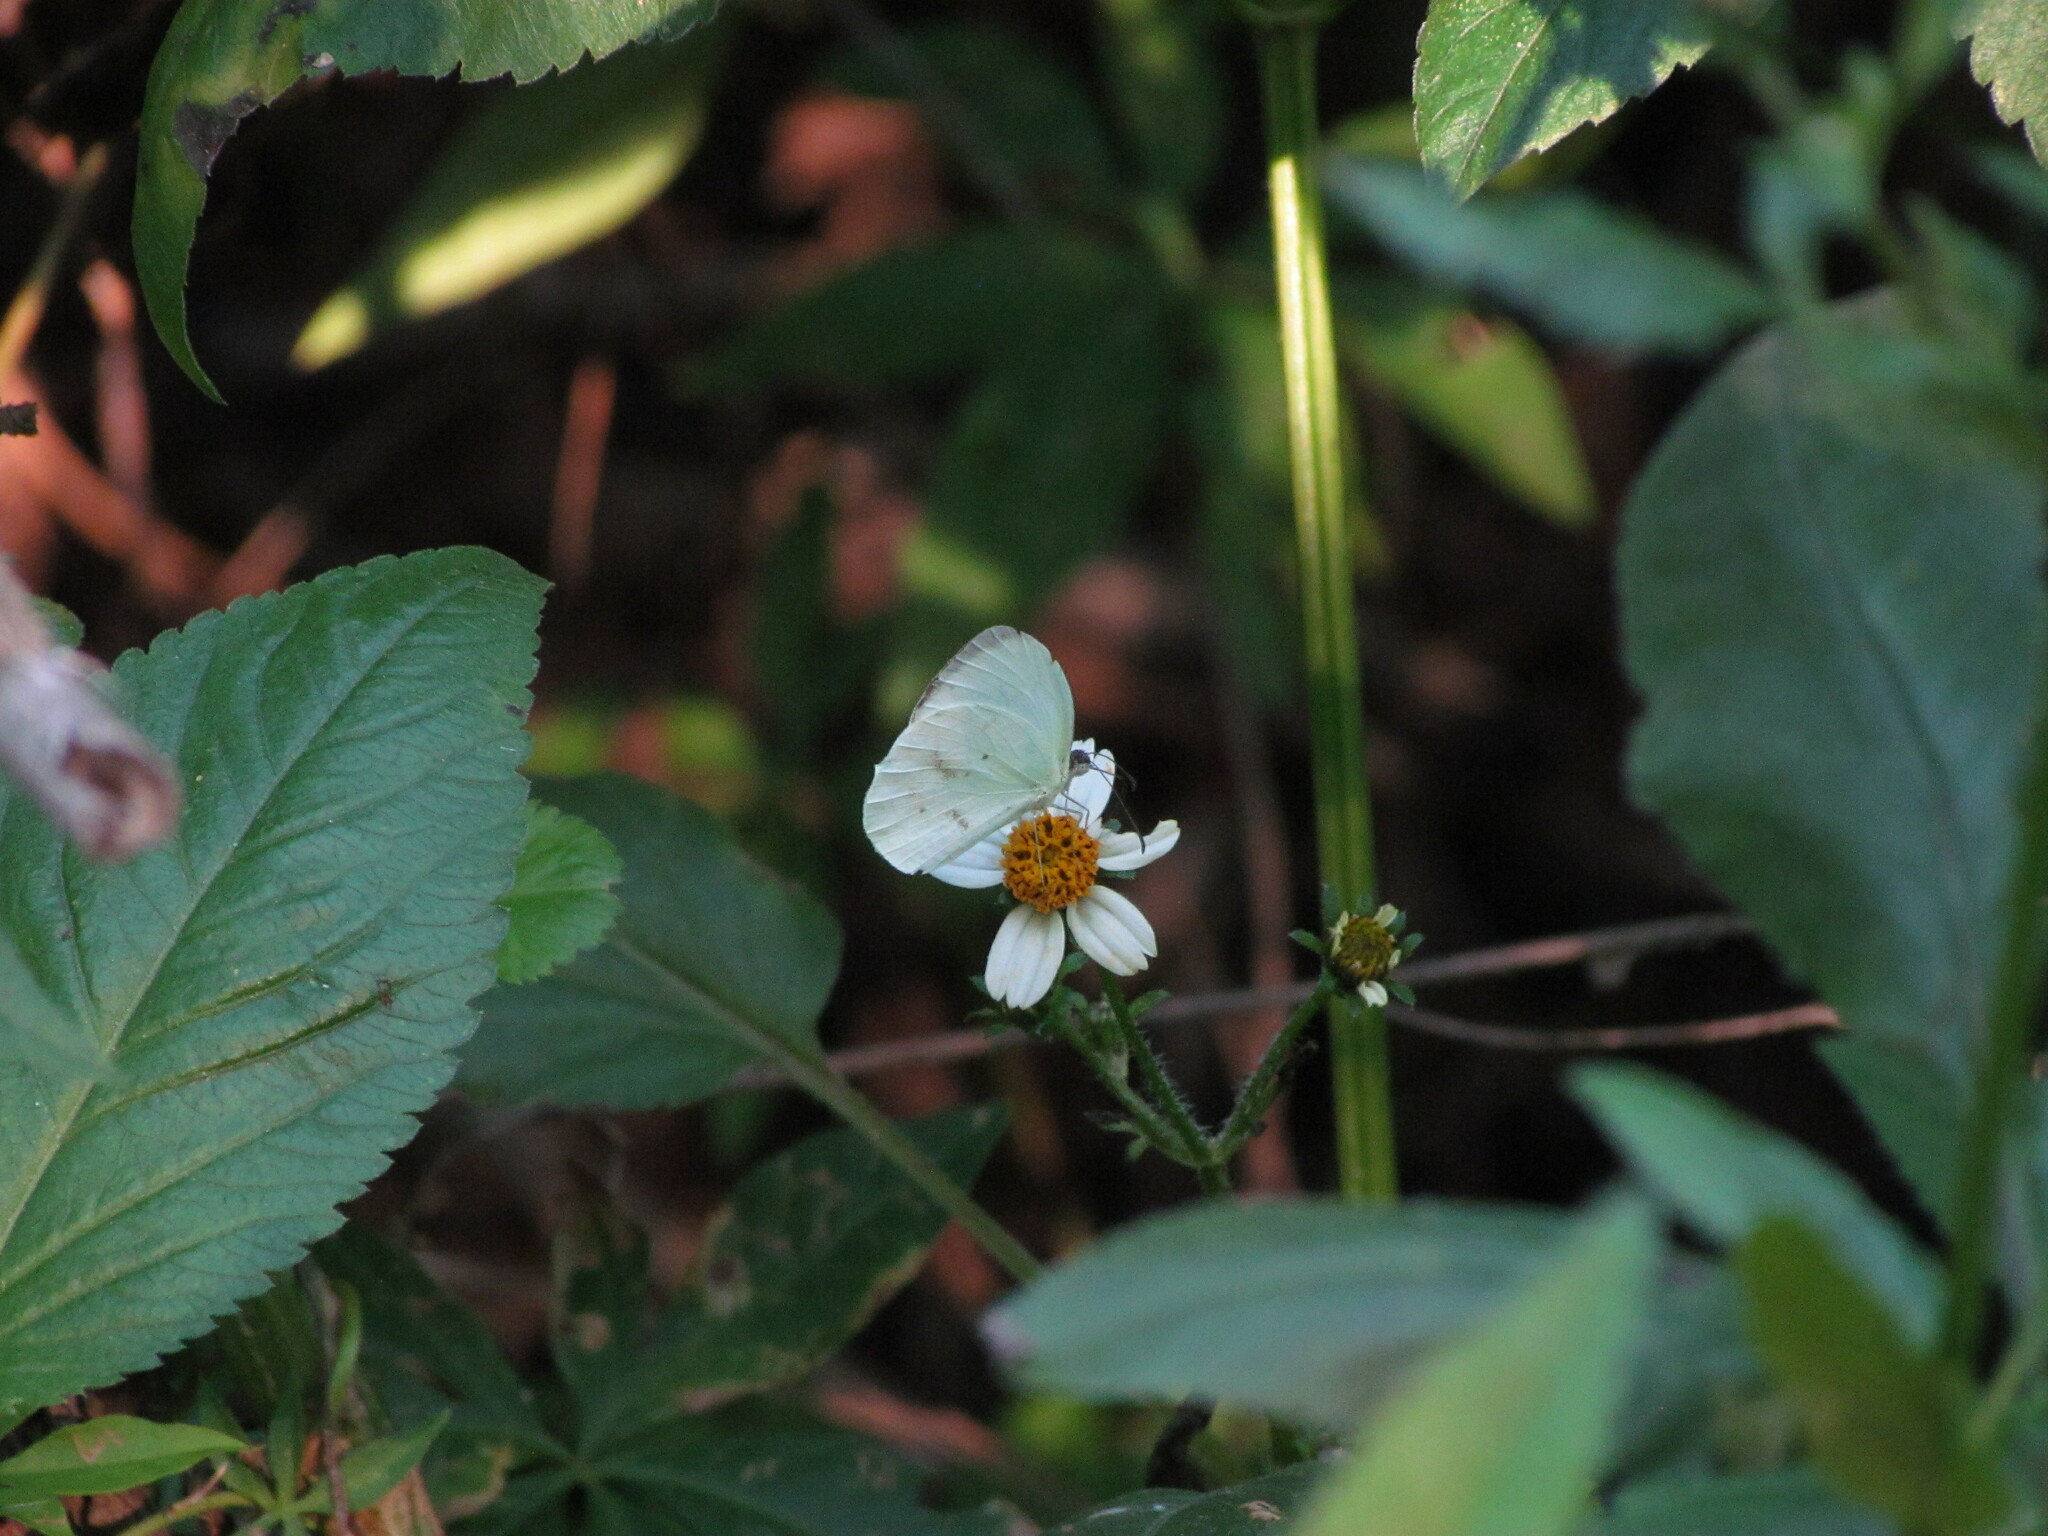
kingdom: Animalia
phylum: Arthropoda
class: Insecta
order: Lepidoptera
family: Pieridae
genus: Abaeis
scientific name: Abaeis albula
